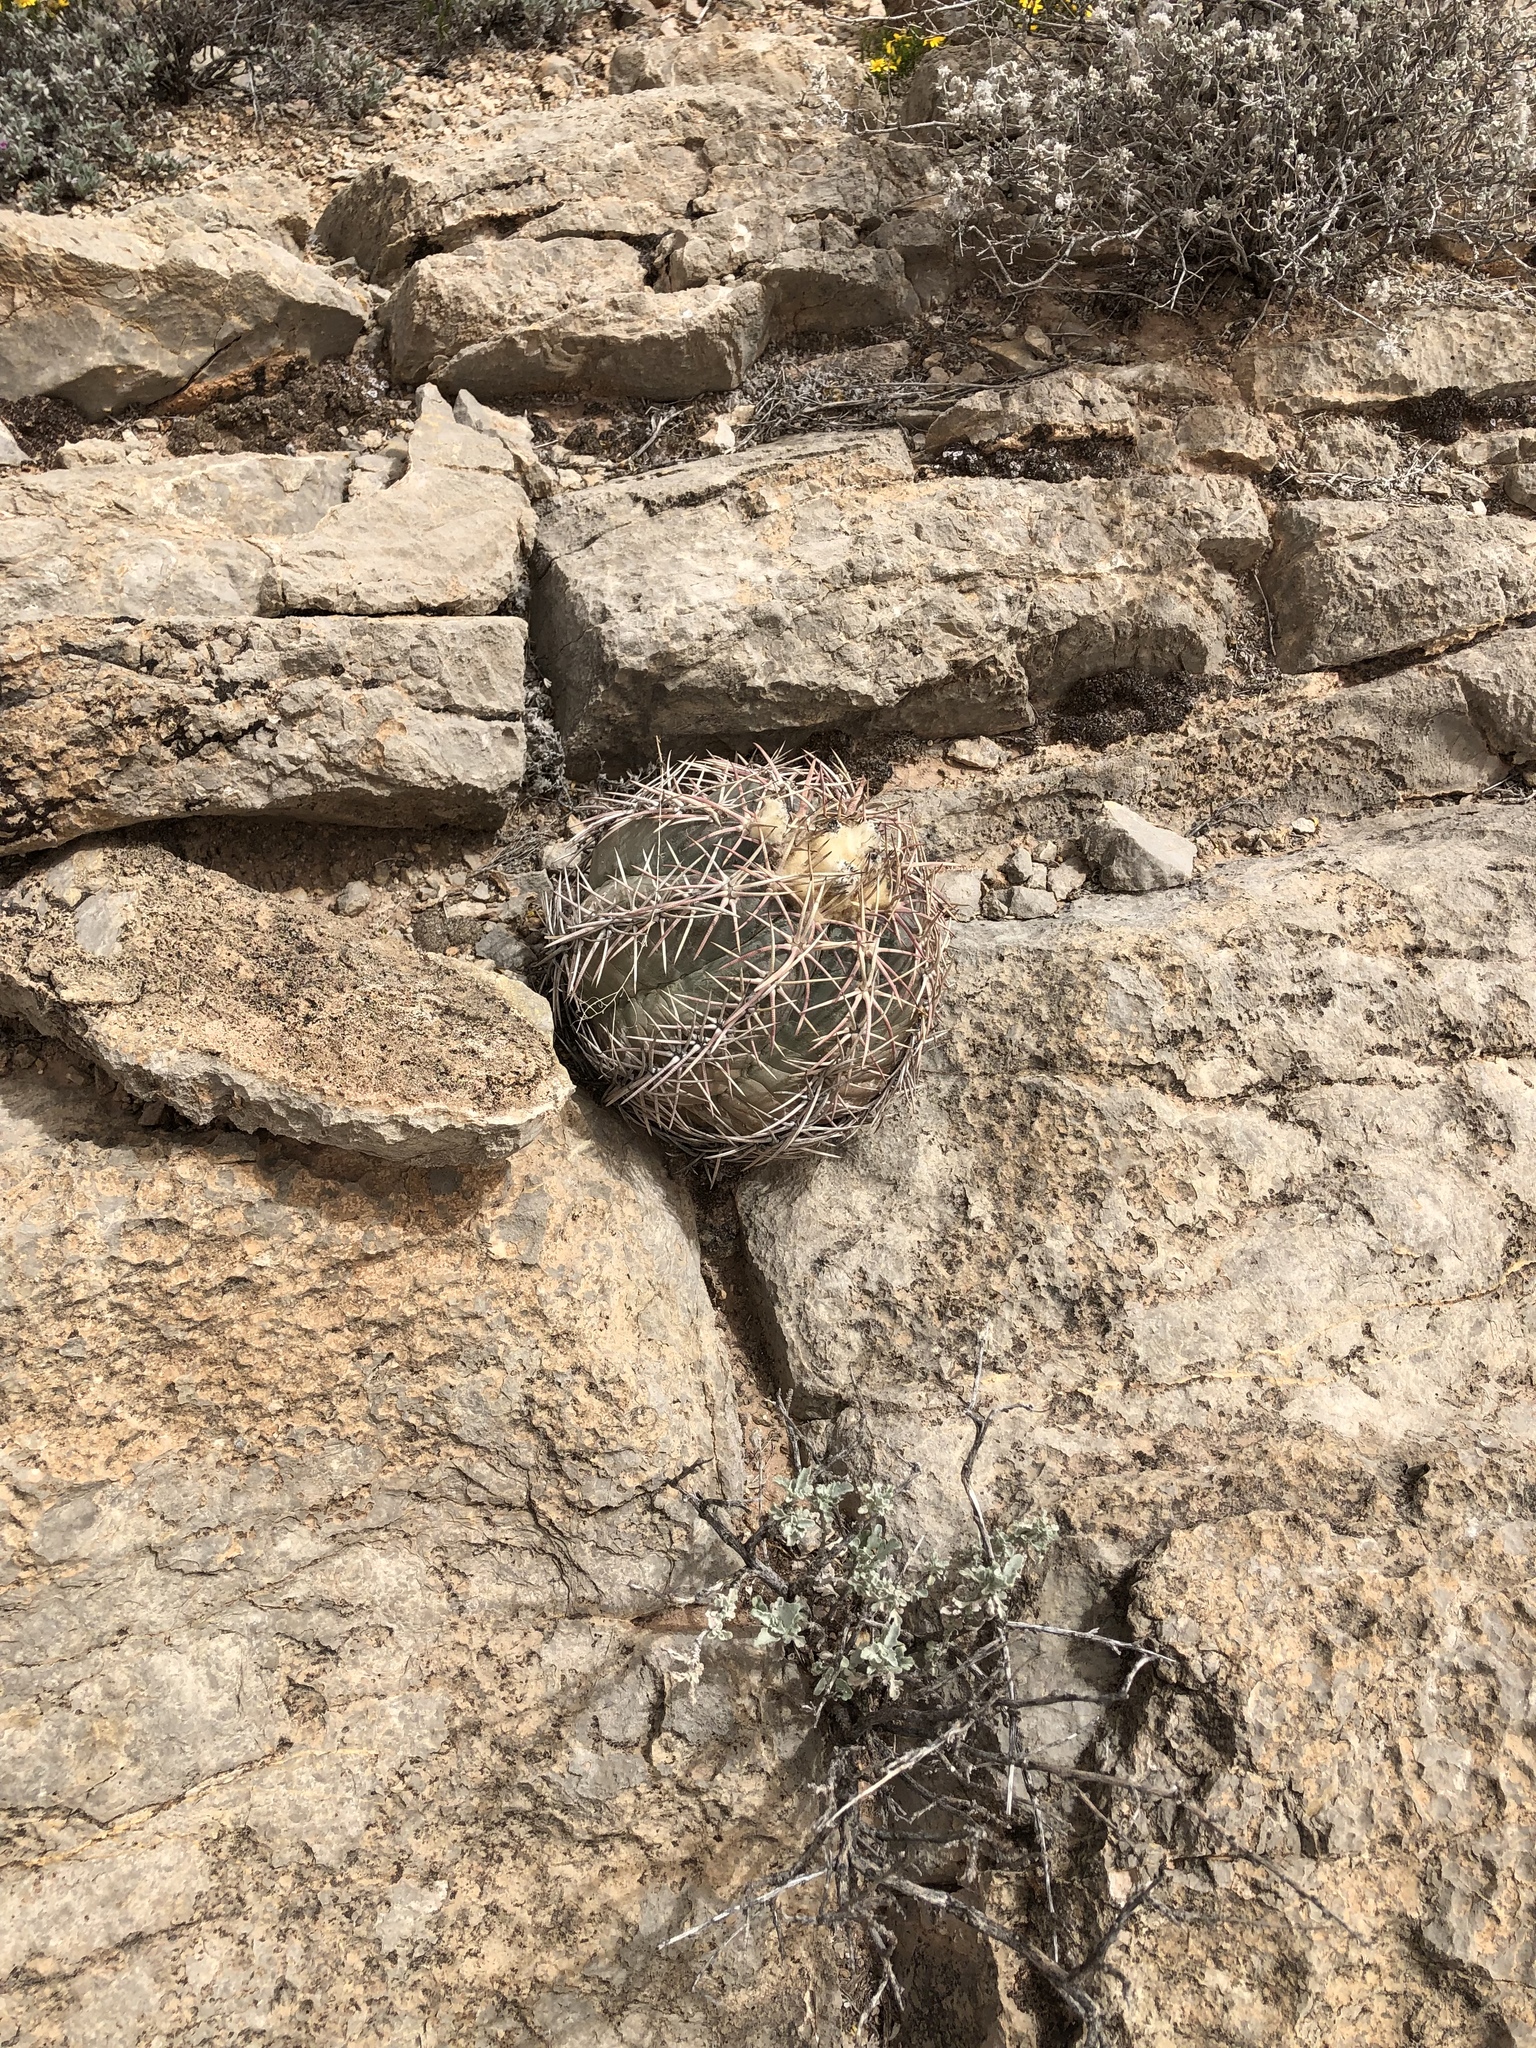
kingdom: Plantae
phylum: Tracheophyta
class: Magnoliopsida
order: Caryophyllales
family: Cactaceae
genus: Echinocactus
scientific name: Echinocactus horizonthalonius
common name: Devilshead
